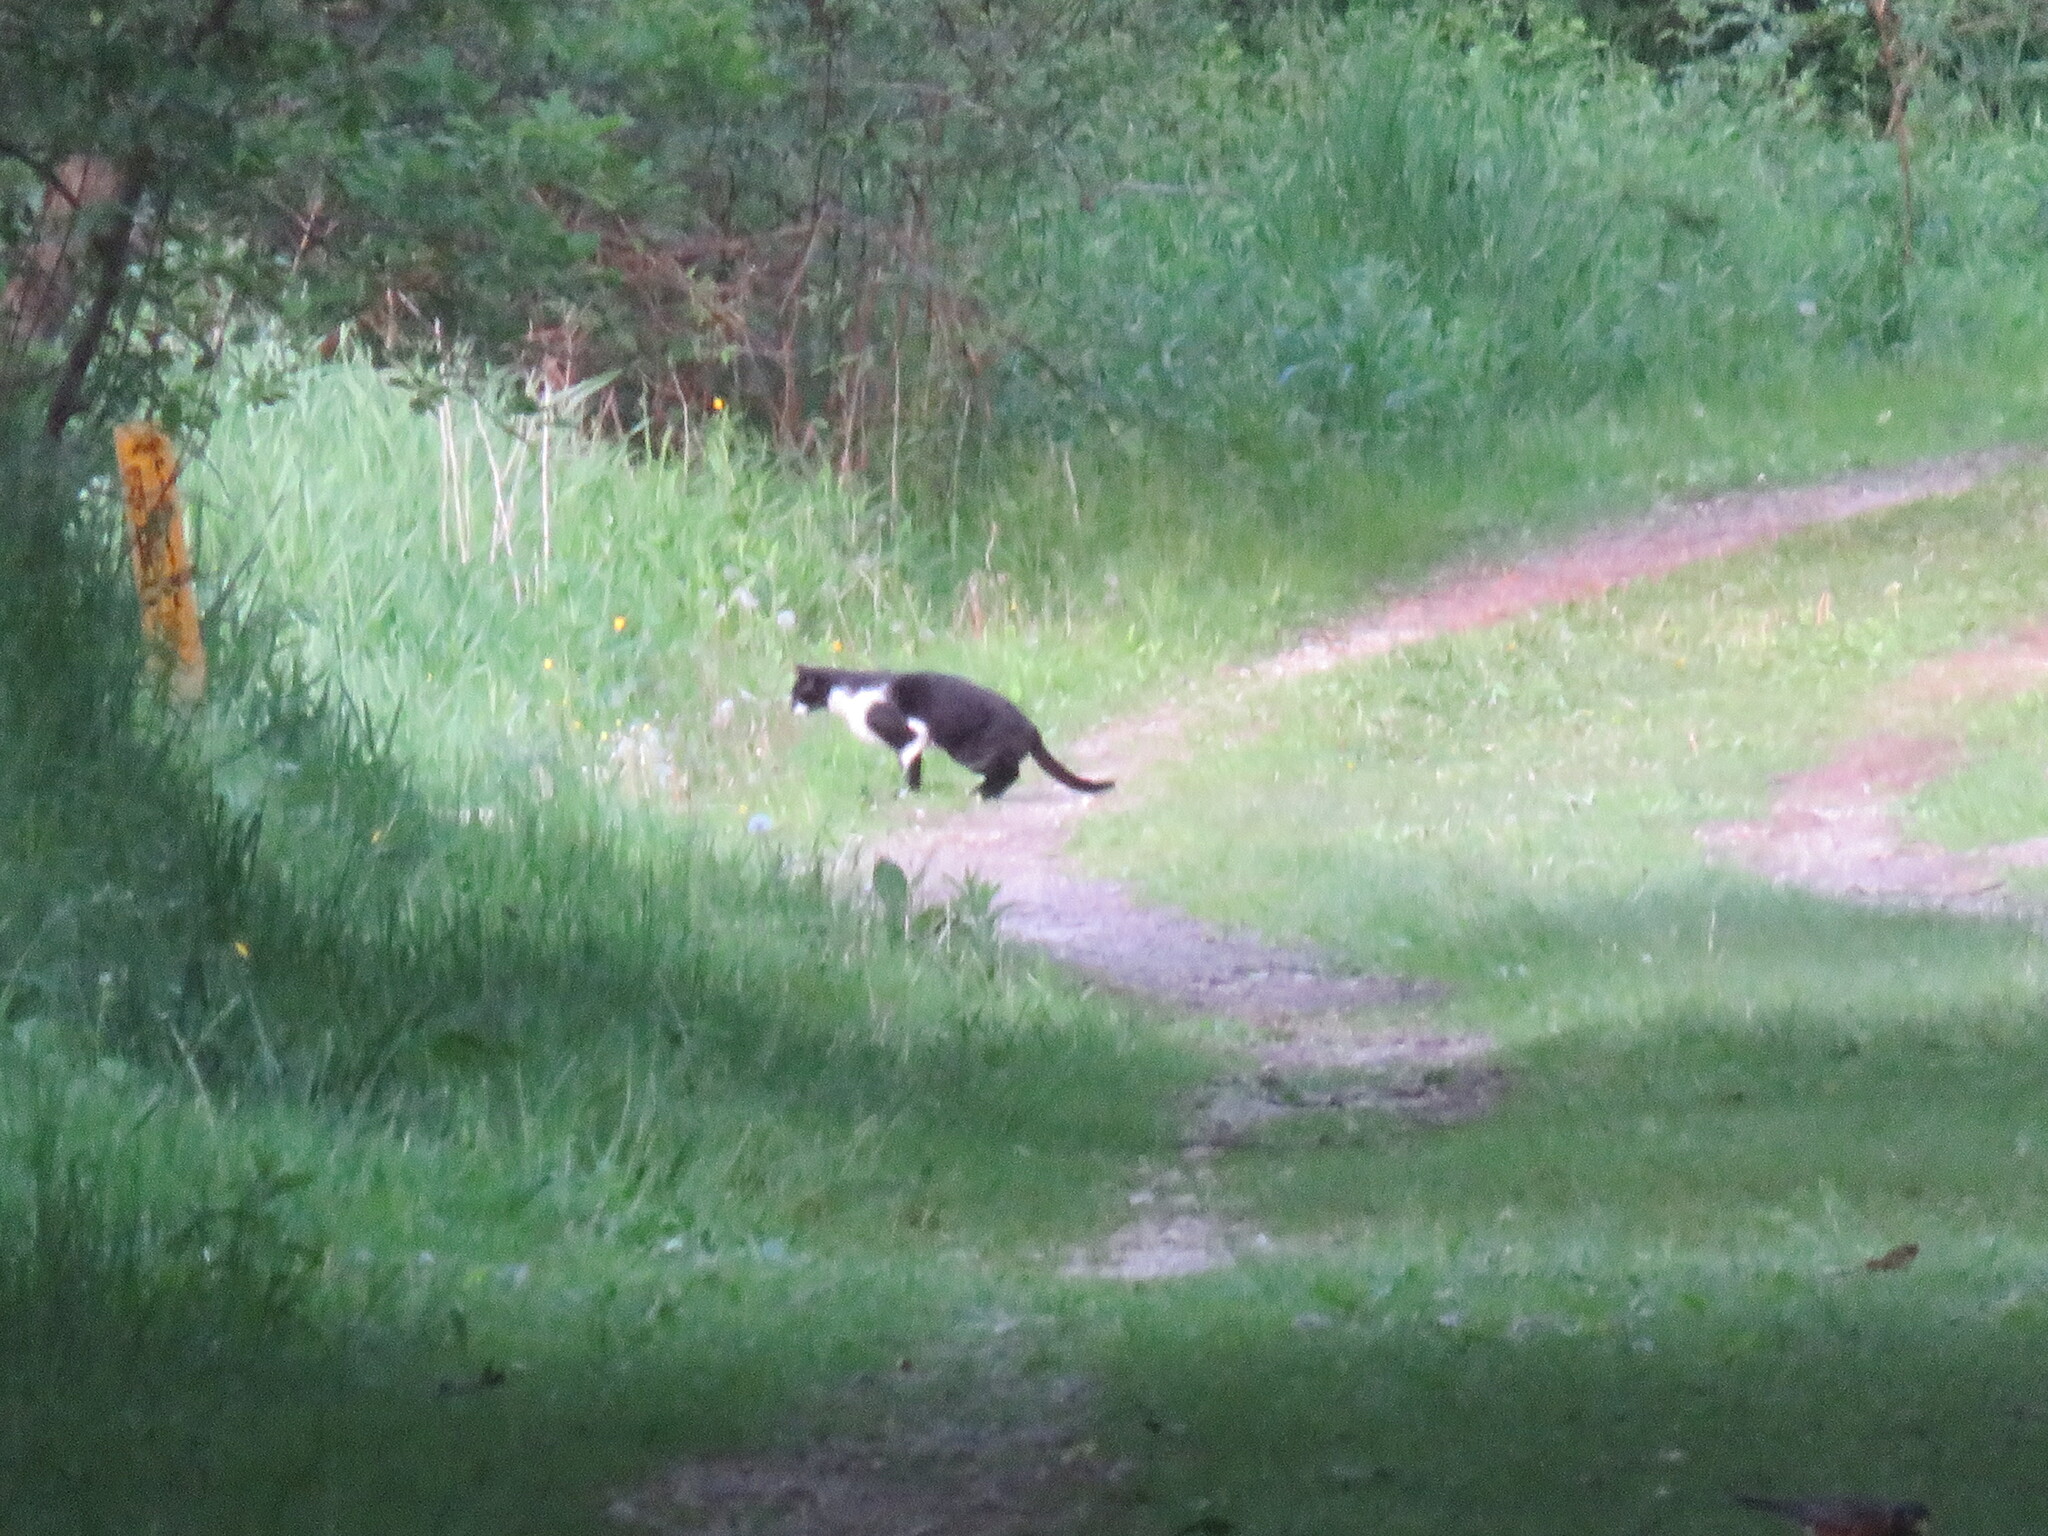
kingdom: Animalia
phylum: Chordata
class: Mammalia
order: Carnivora
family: Felidae
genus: Felis
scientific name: Felis catus
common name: Domestic cat
